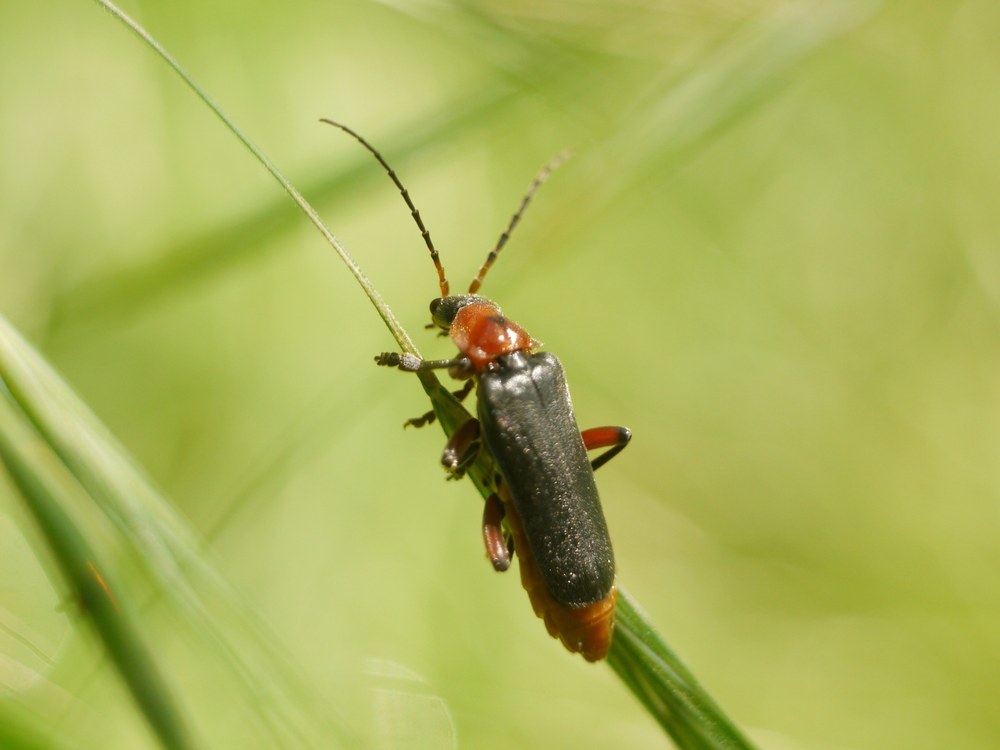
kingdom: Animalia
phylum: Arthropoda
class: Insecta
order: Coleoptera
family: Cantharidae
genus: Cantharis
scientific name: Cantharis rustica
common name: Soldier beetle
